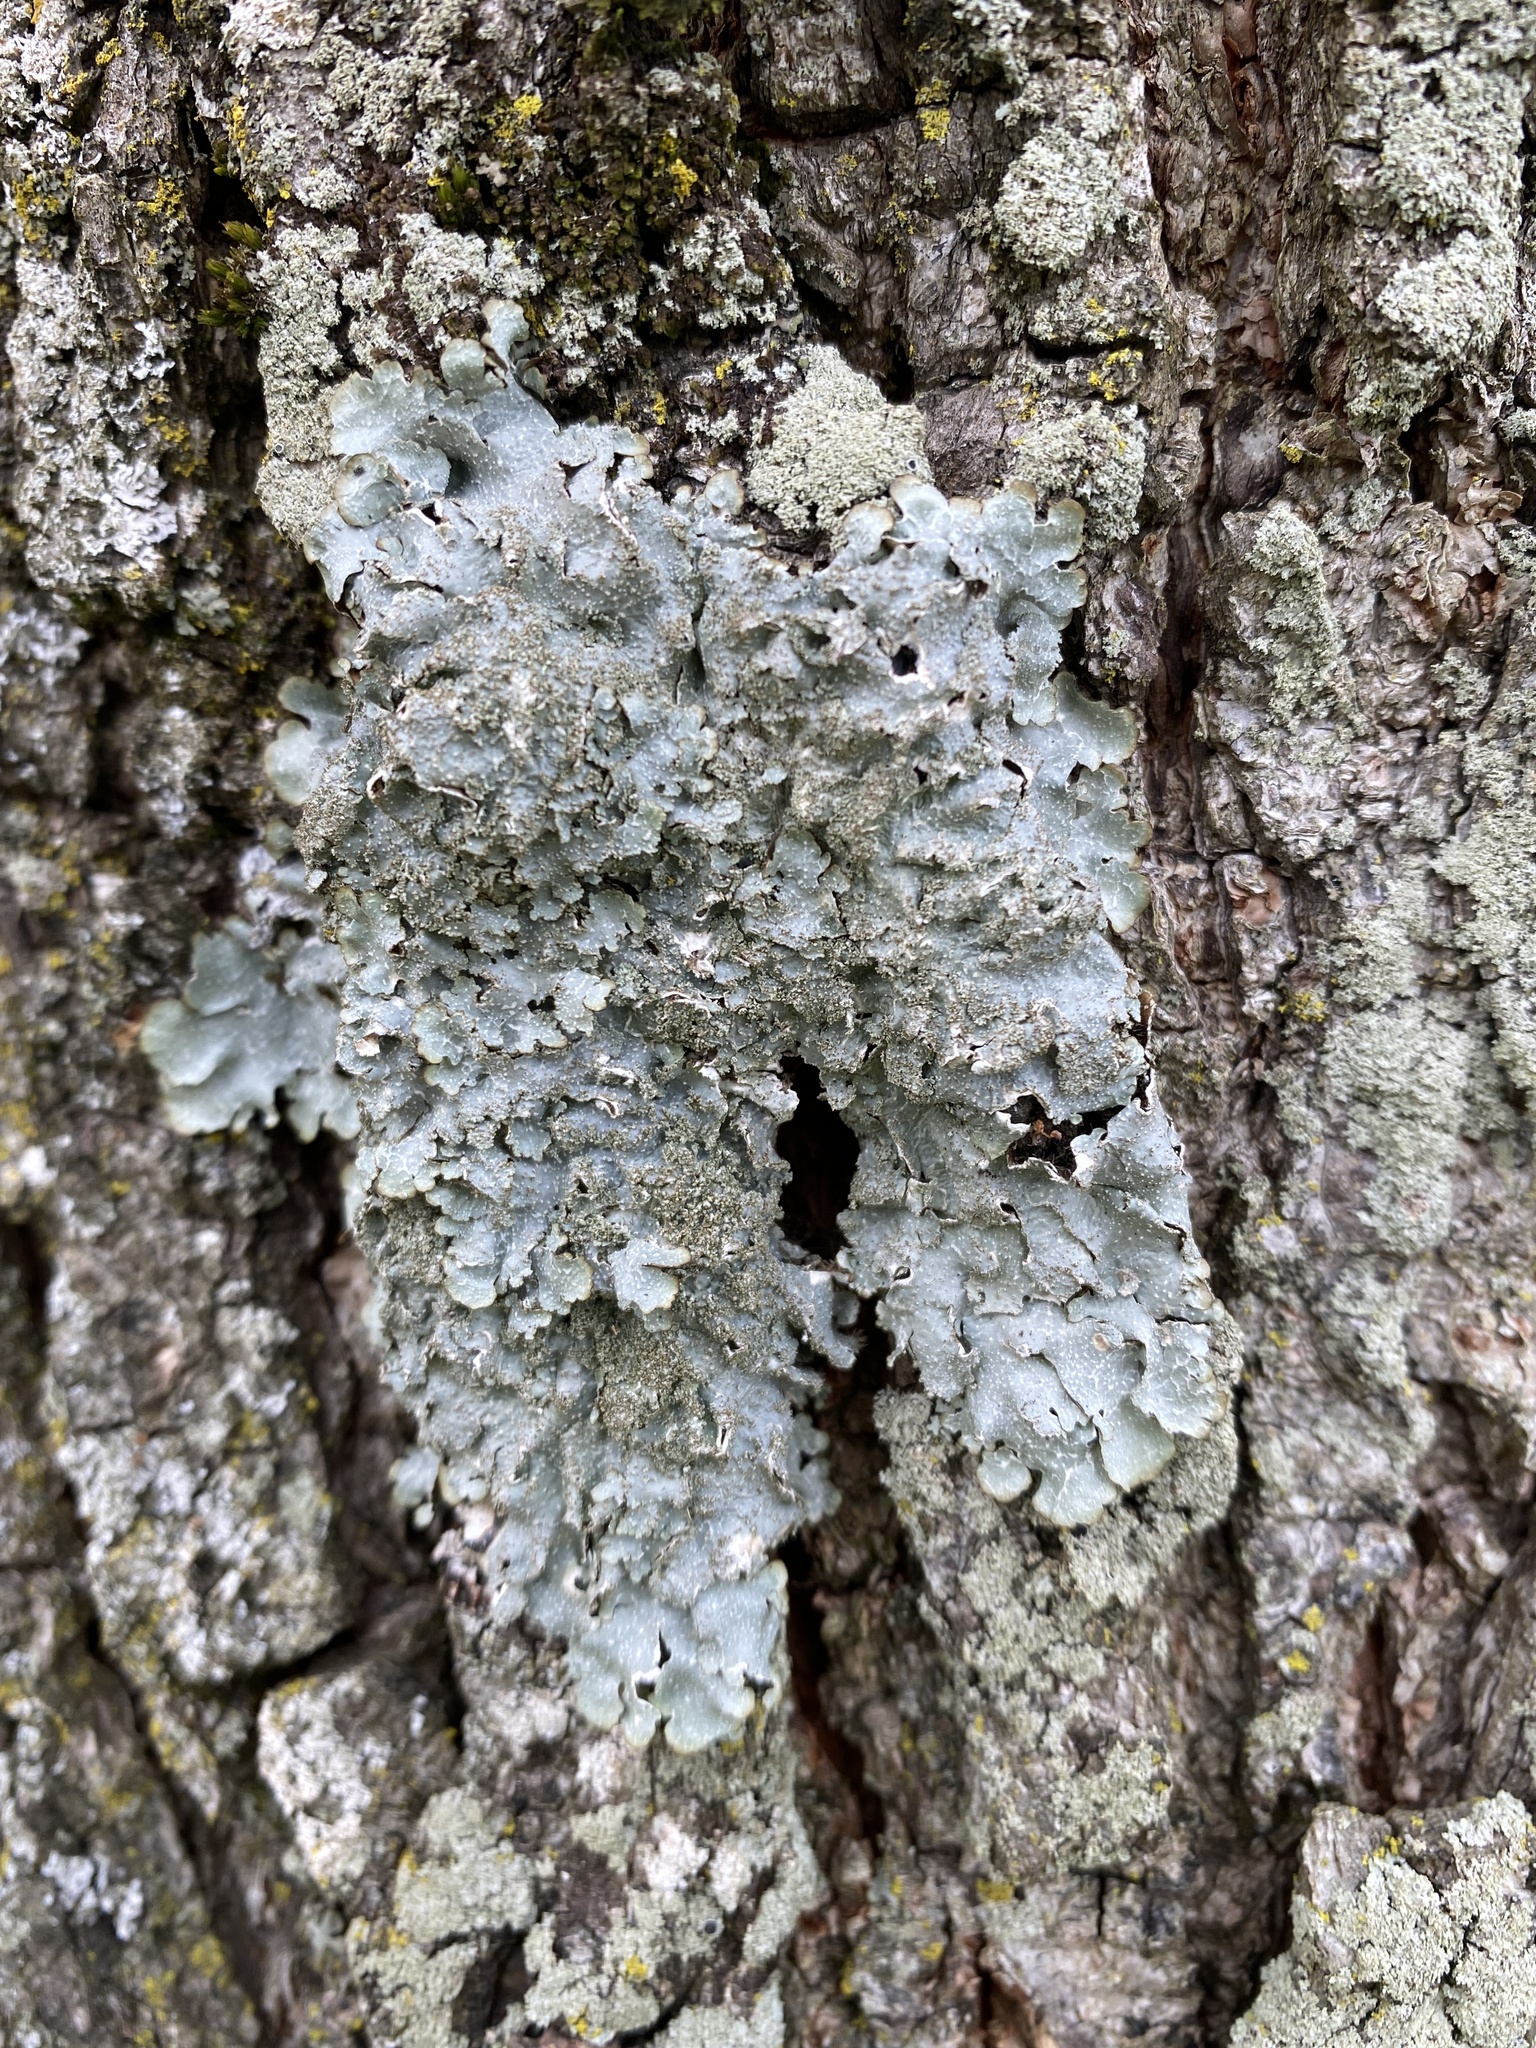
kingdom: Fungi
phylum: Ascomycota
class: Lecanoromycetes
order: Lecanorales
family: Parmeliaceae
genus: Punctelia
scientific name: Punctelia rudecta
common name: Rough speckled shield lichen
